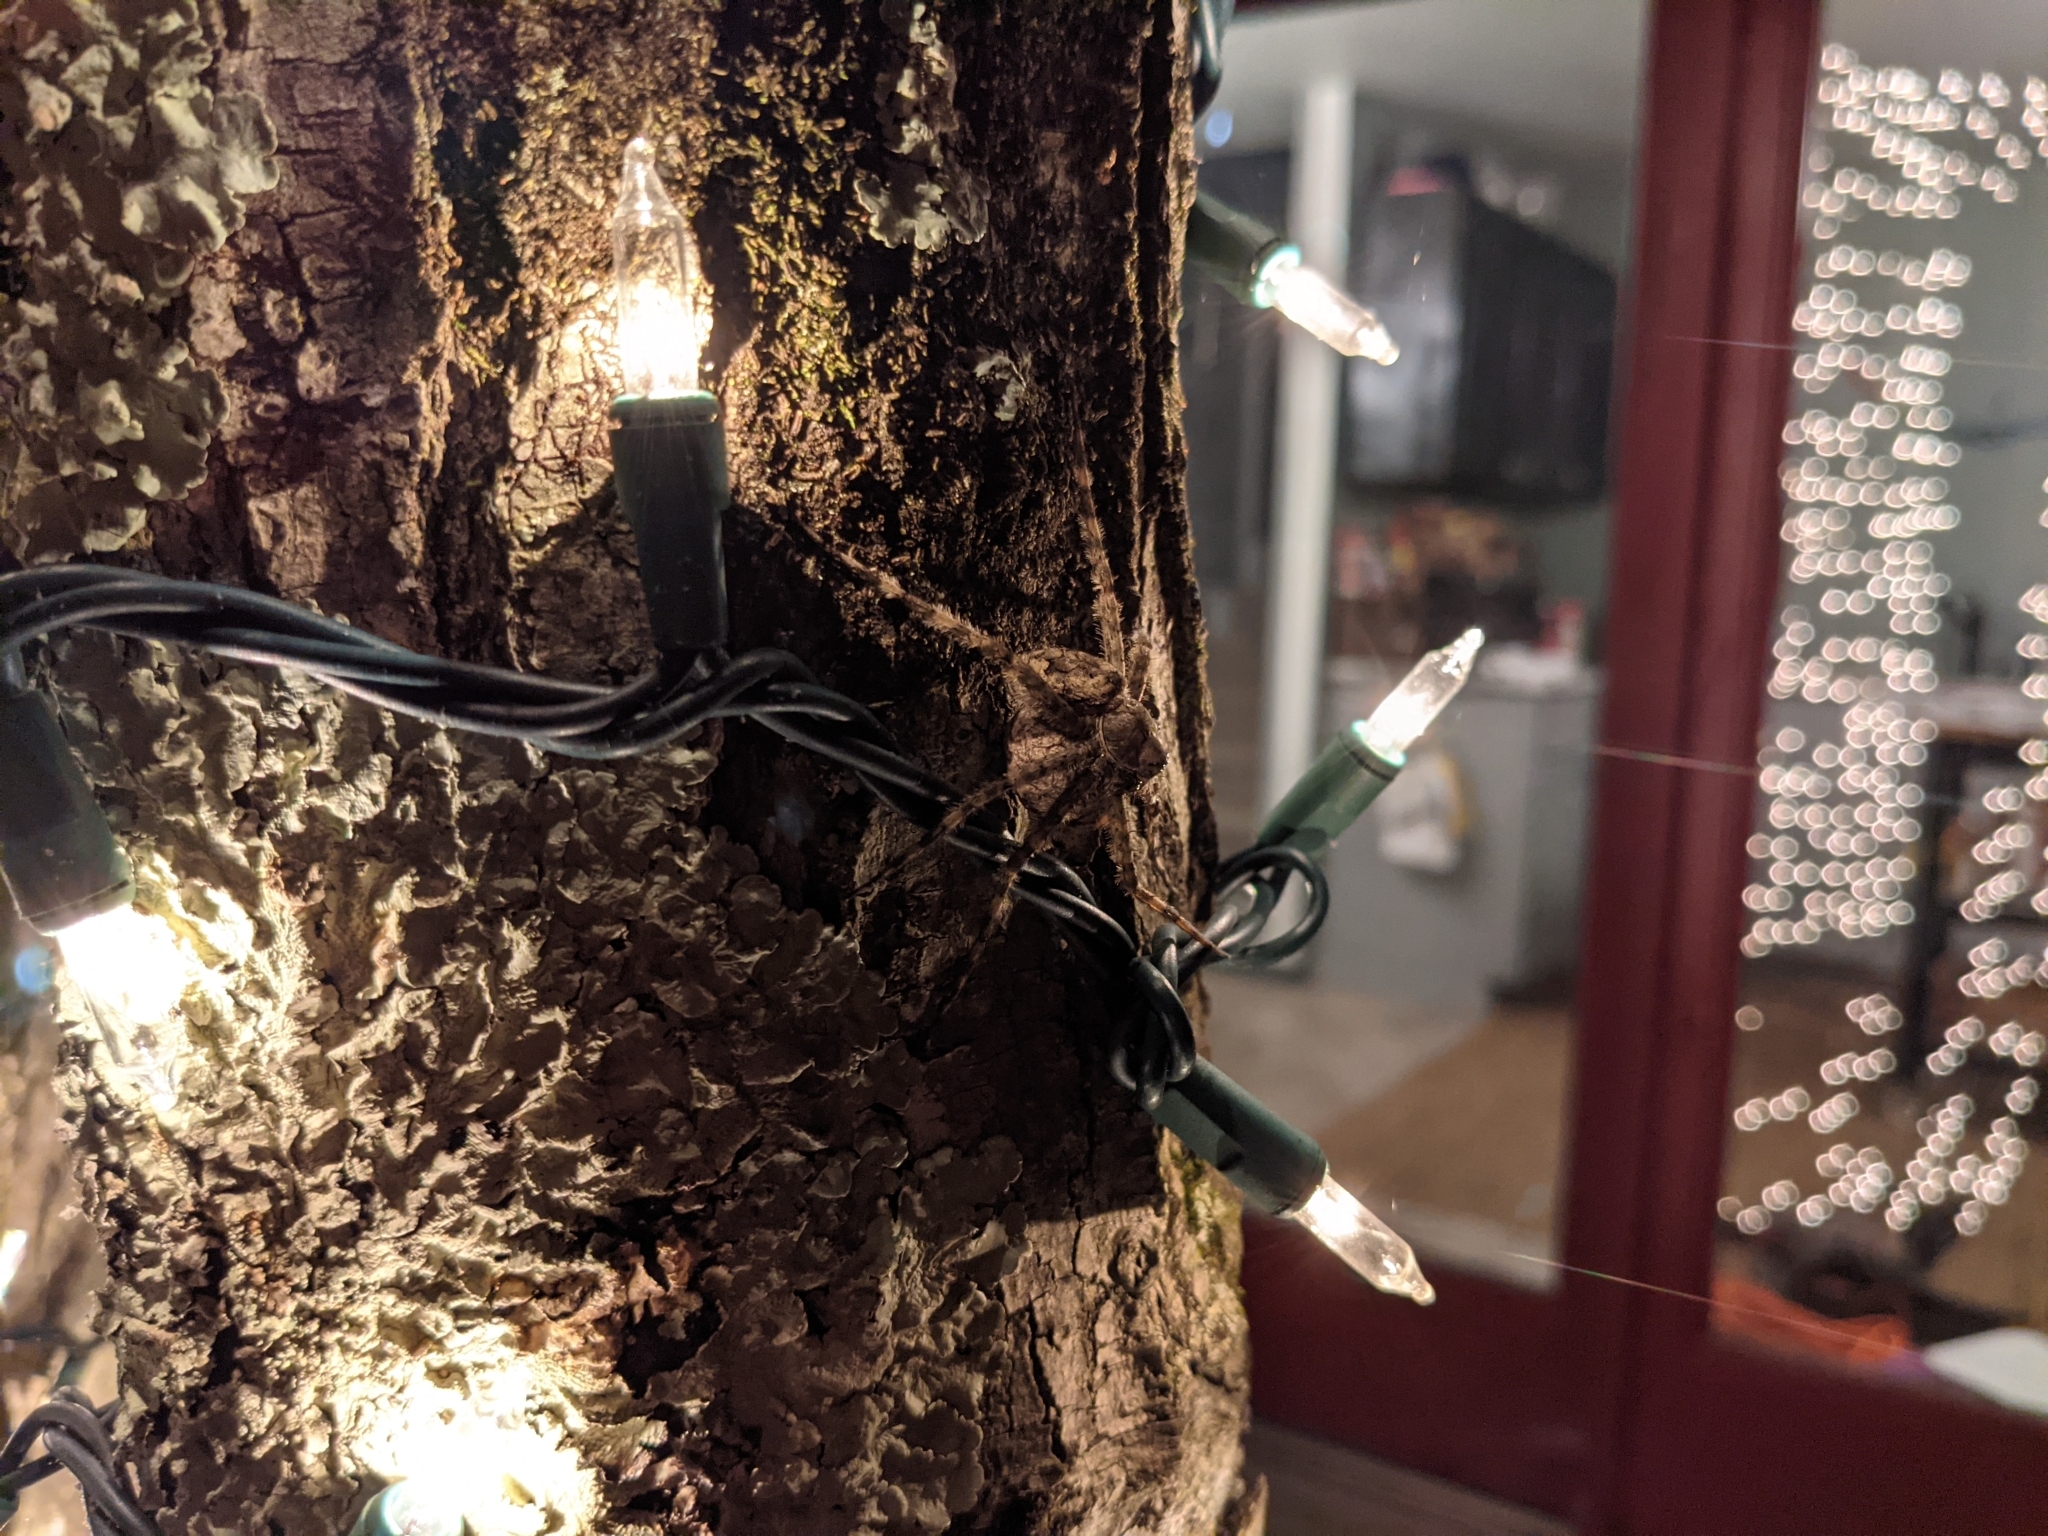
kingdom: Animalia
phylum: Arthropoda
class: Arachnida
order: Araneae
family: Pisauridae
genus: Dolomedes
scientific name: Dolomedes albineus
